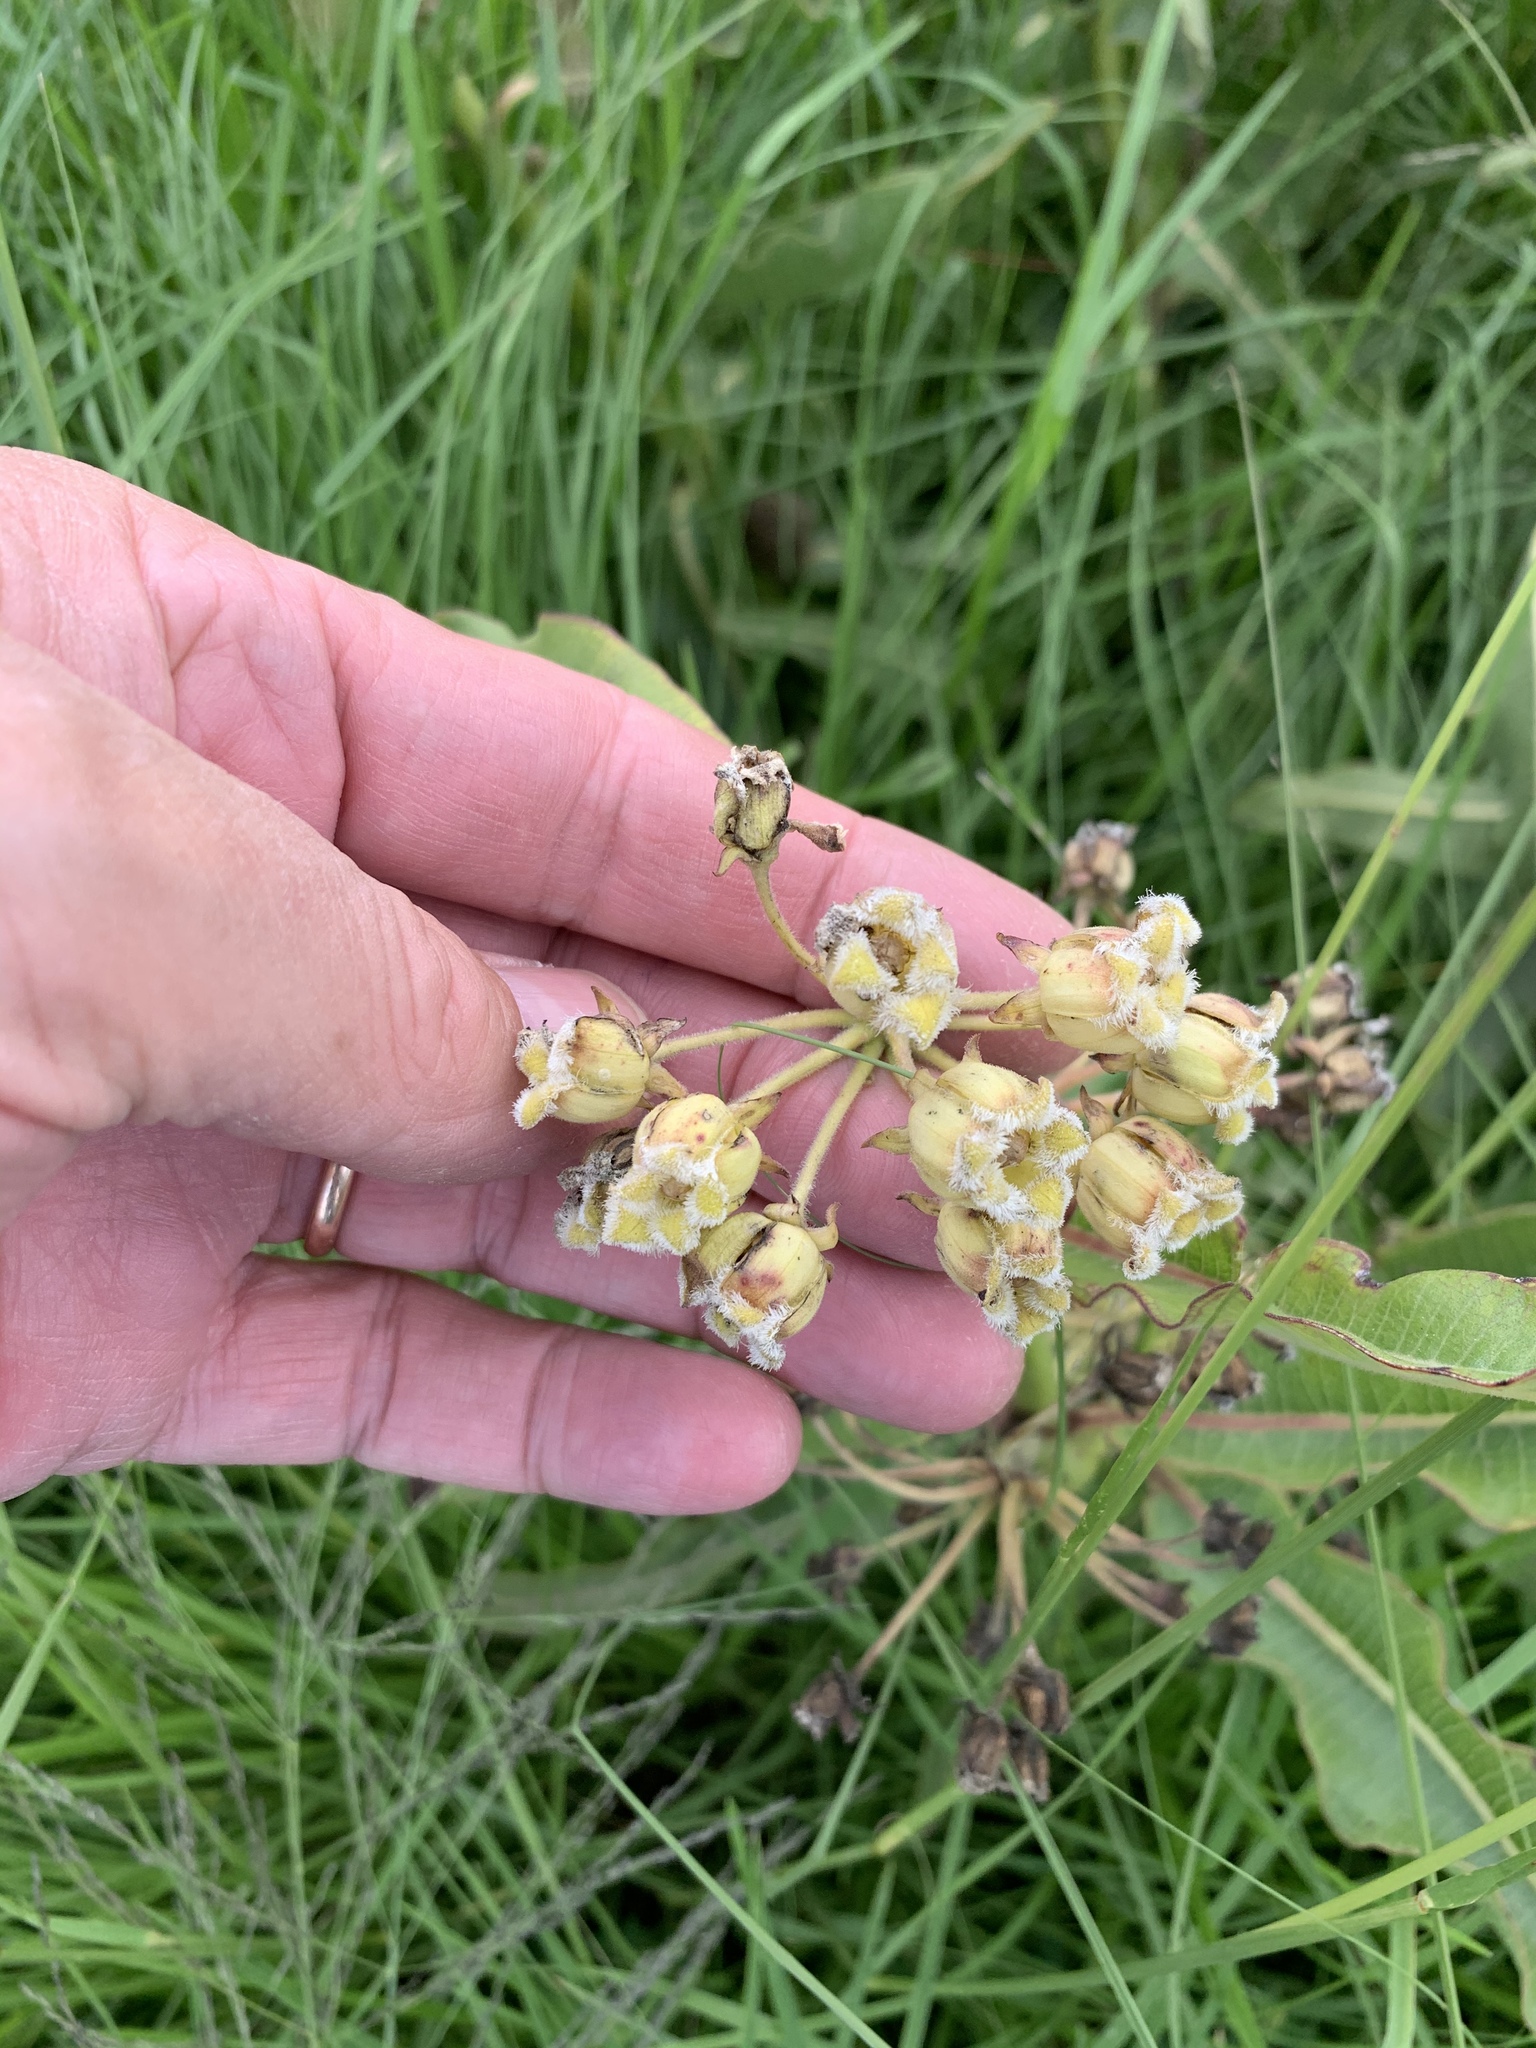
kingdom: Plantae
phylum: Tracheophyta
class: Magnoliopsida
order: Gentianales
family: Apocynaceae
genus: Xysmalobium
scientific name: Xysmalobium undulatum
